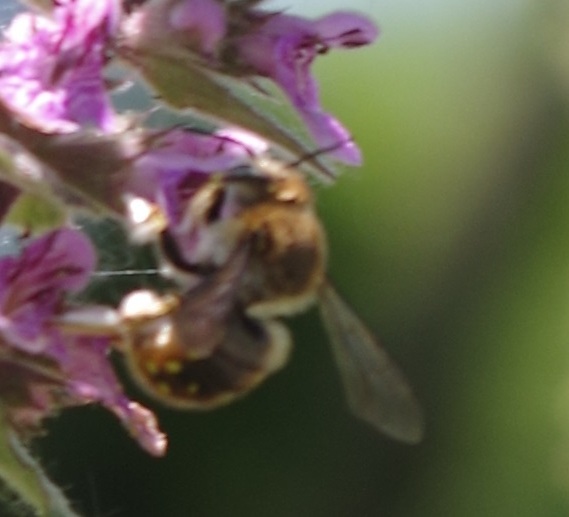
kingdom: Animalia
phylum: Arthropoda
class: Insecta
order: Hymenoptera
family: Megachilidae
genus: Anthidium
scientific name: Anthidium manicatum
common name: Wool carder bee
